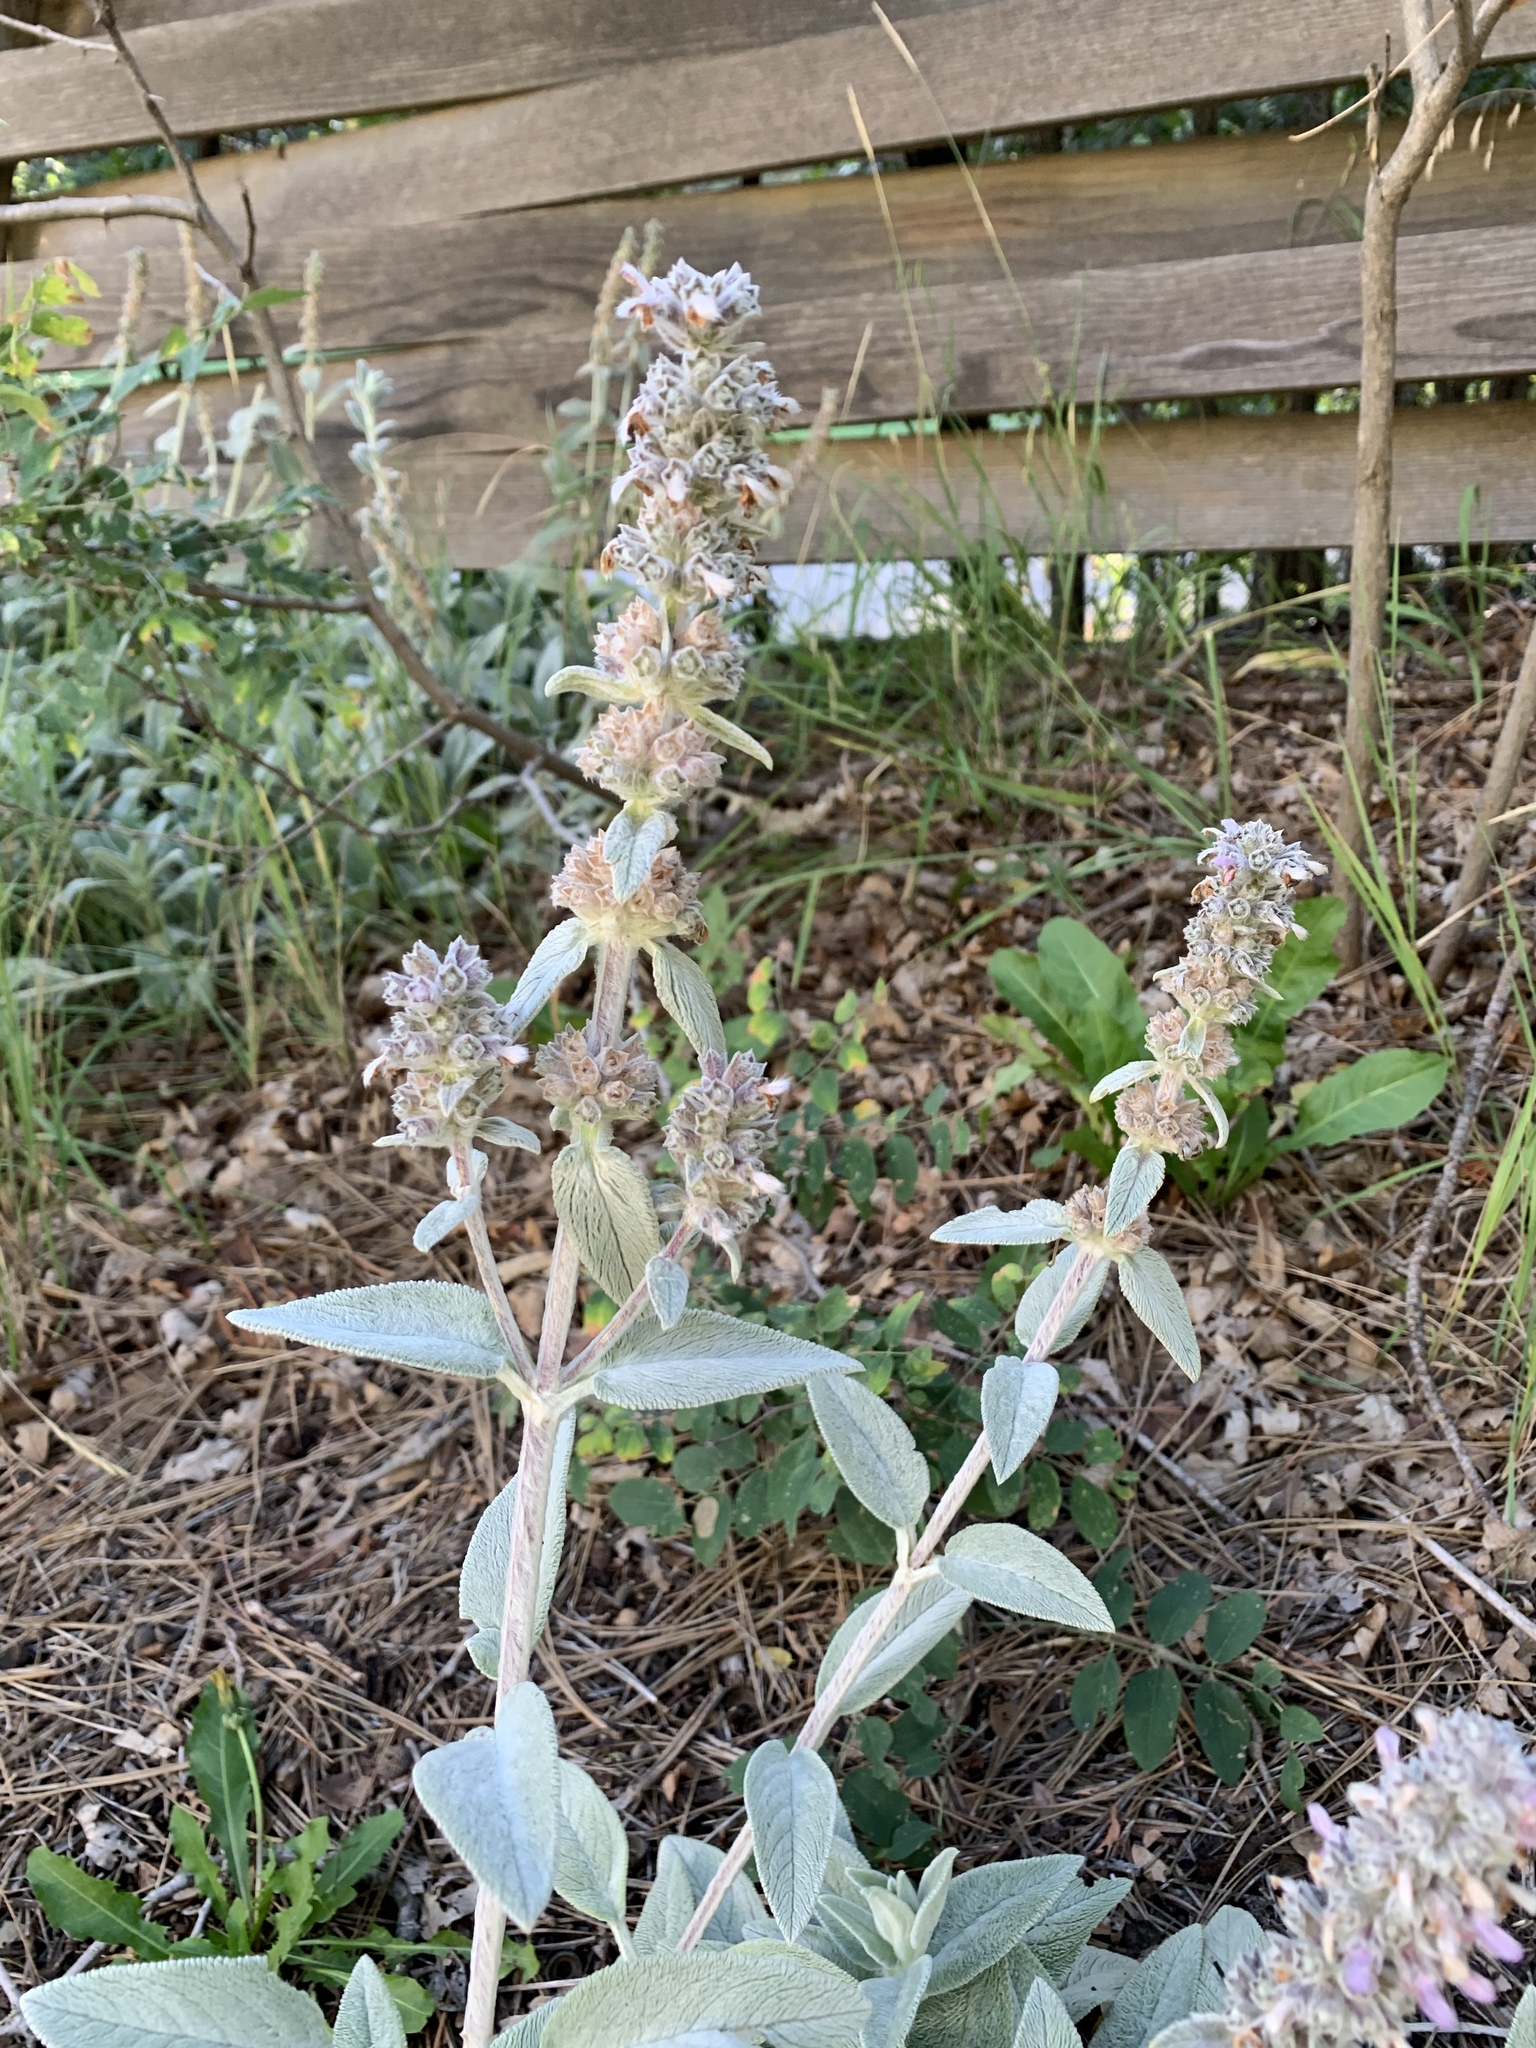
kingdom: Plantae
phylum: Tracheophyta
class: Magnoliopsida
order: Lamiales
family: Lamiaceae
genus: Stachys
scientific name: Stachys byzantina
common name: Lamb's-ear
